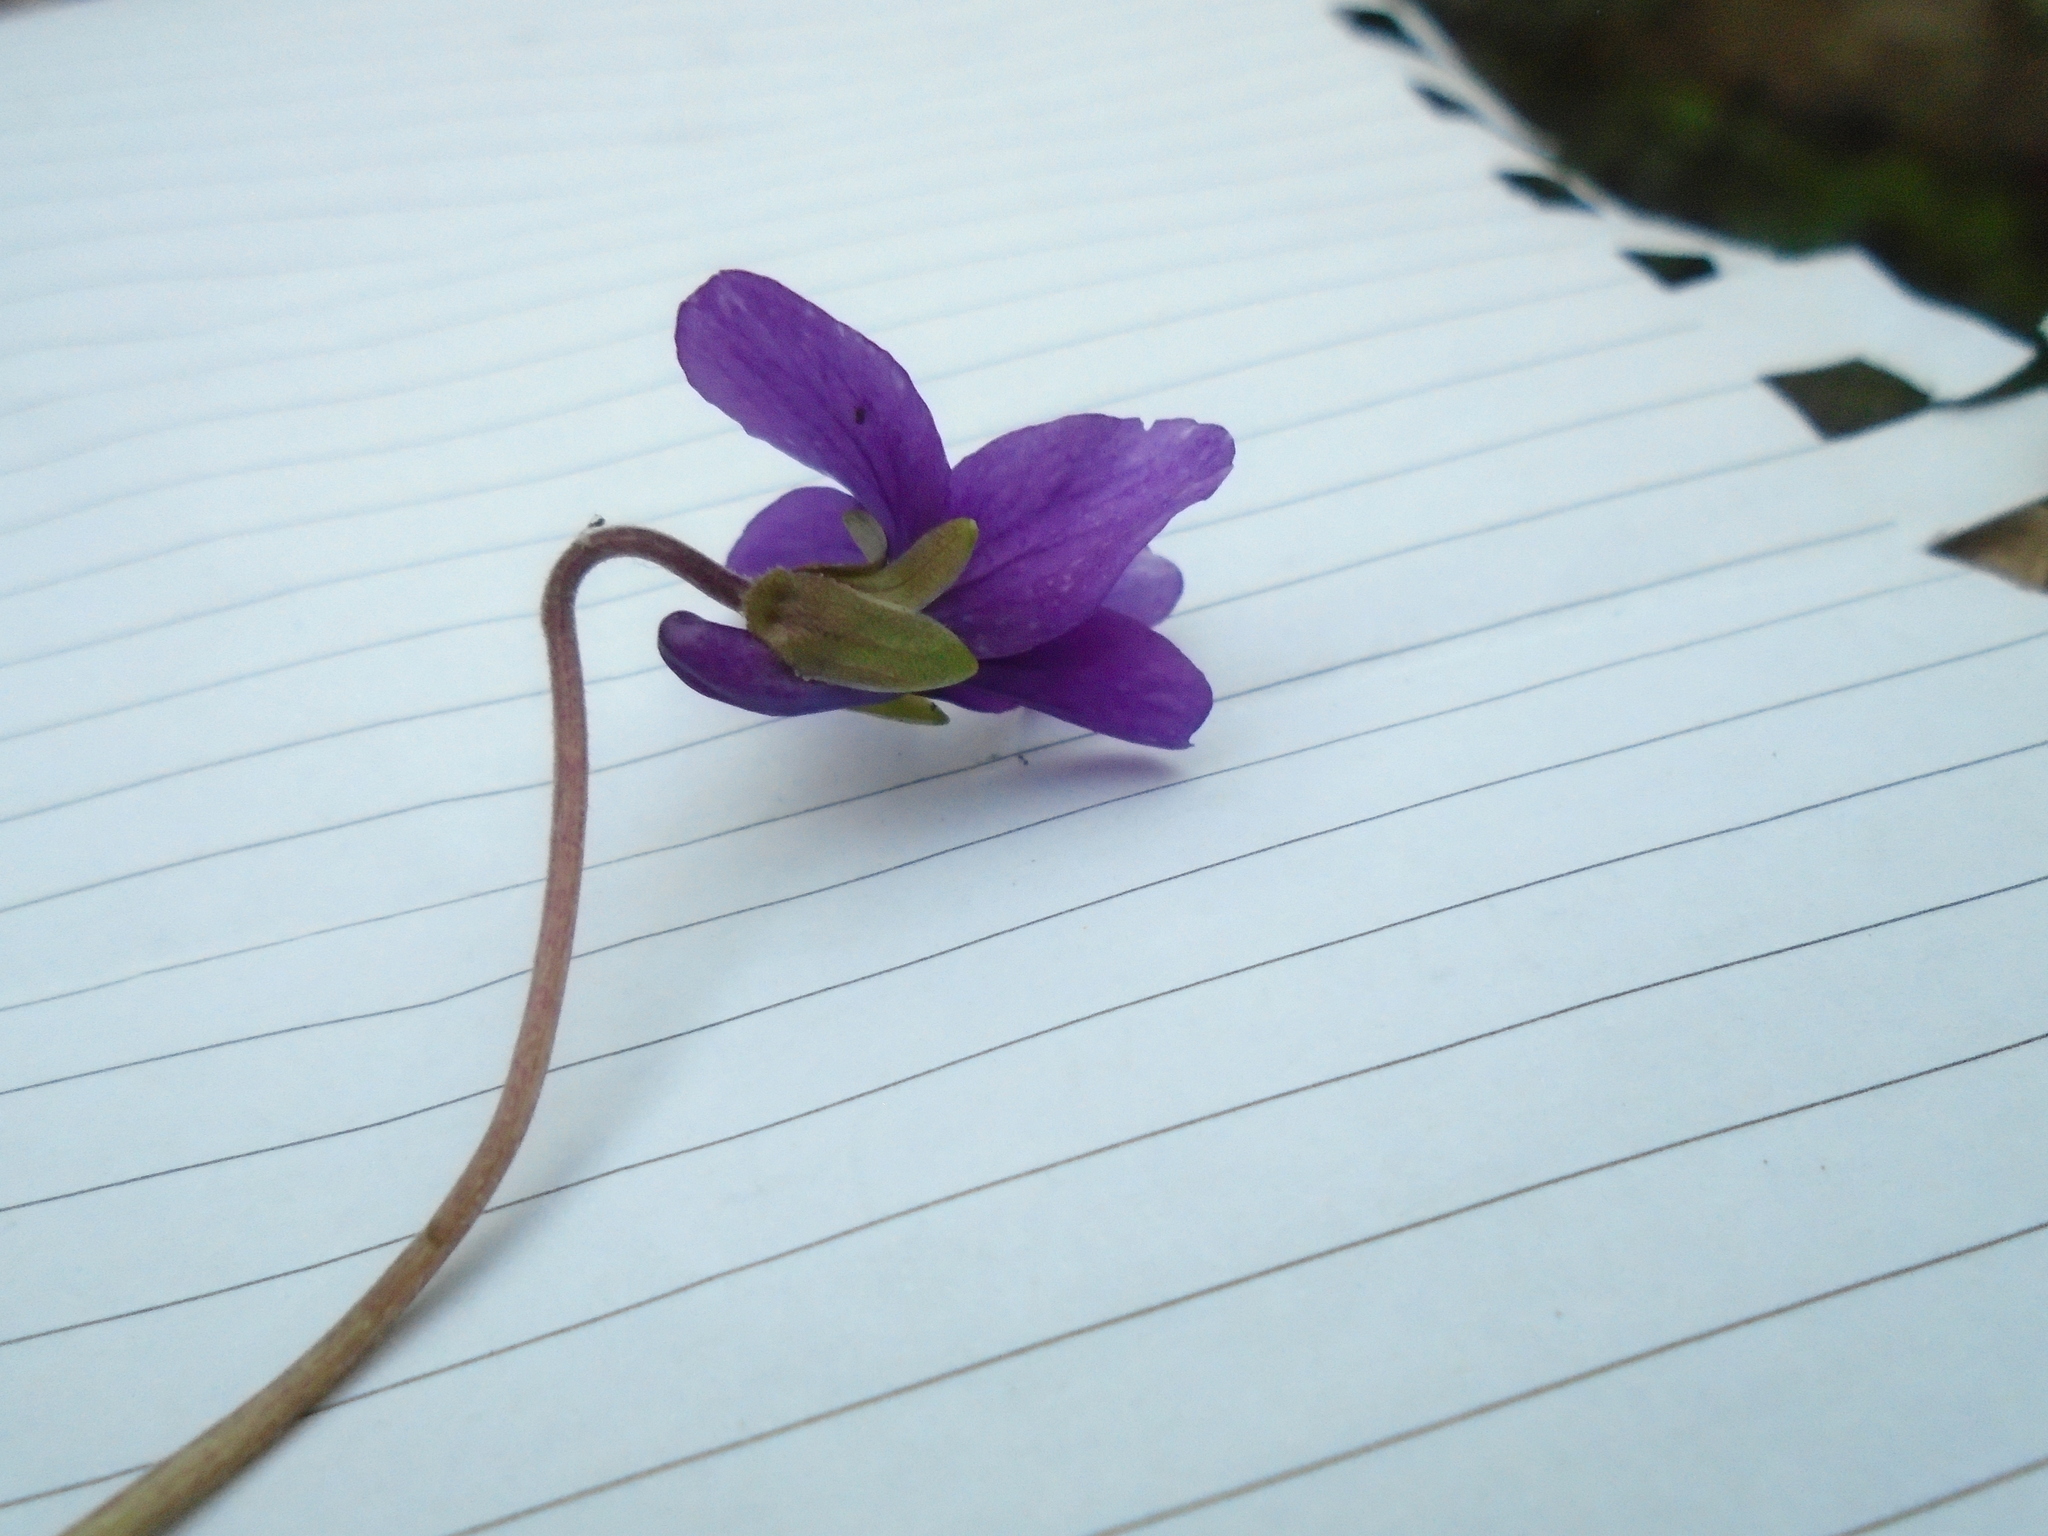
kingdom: Plantae
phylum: Tracheophyta
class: Magnoliopsida
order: Malpighiales
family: Violaceae
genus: Viola
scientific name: Viola odorata
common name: Sweet violet
